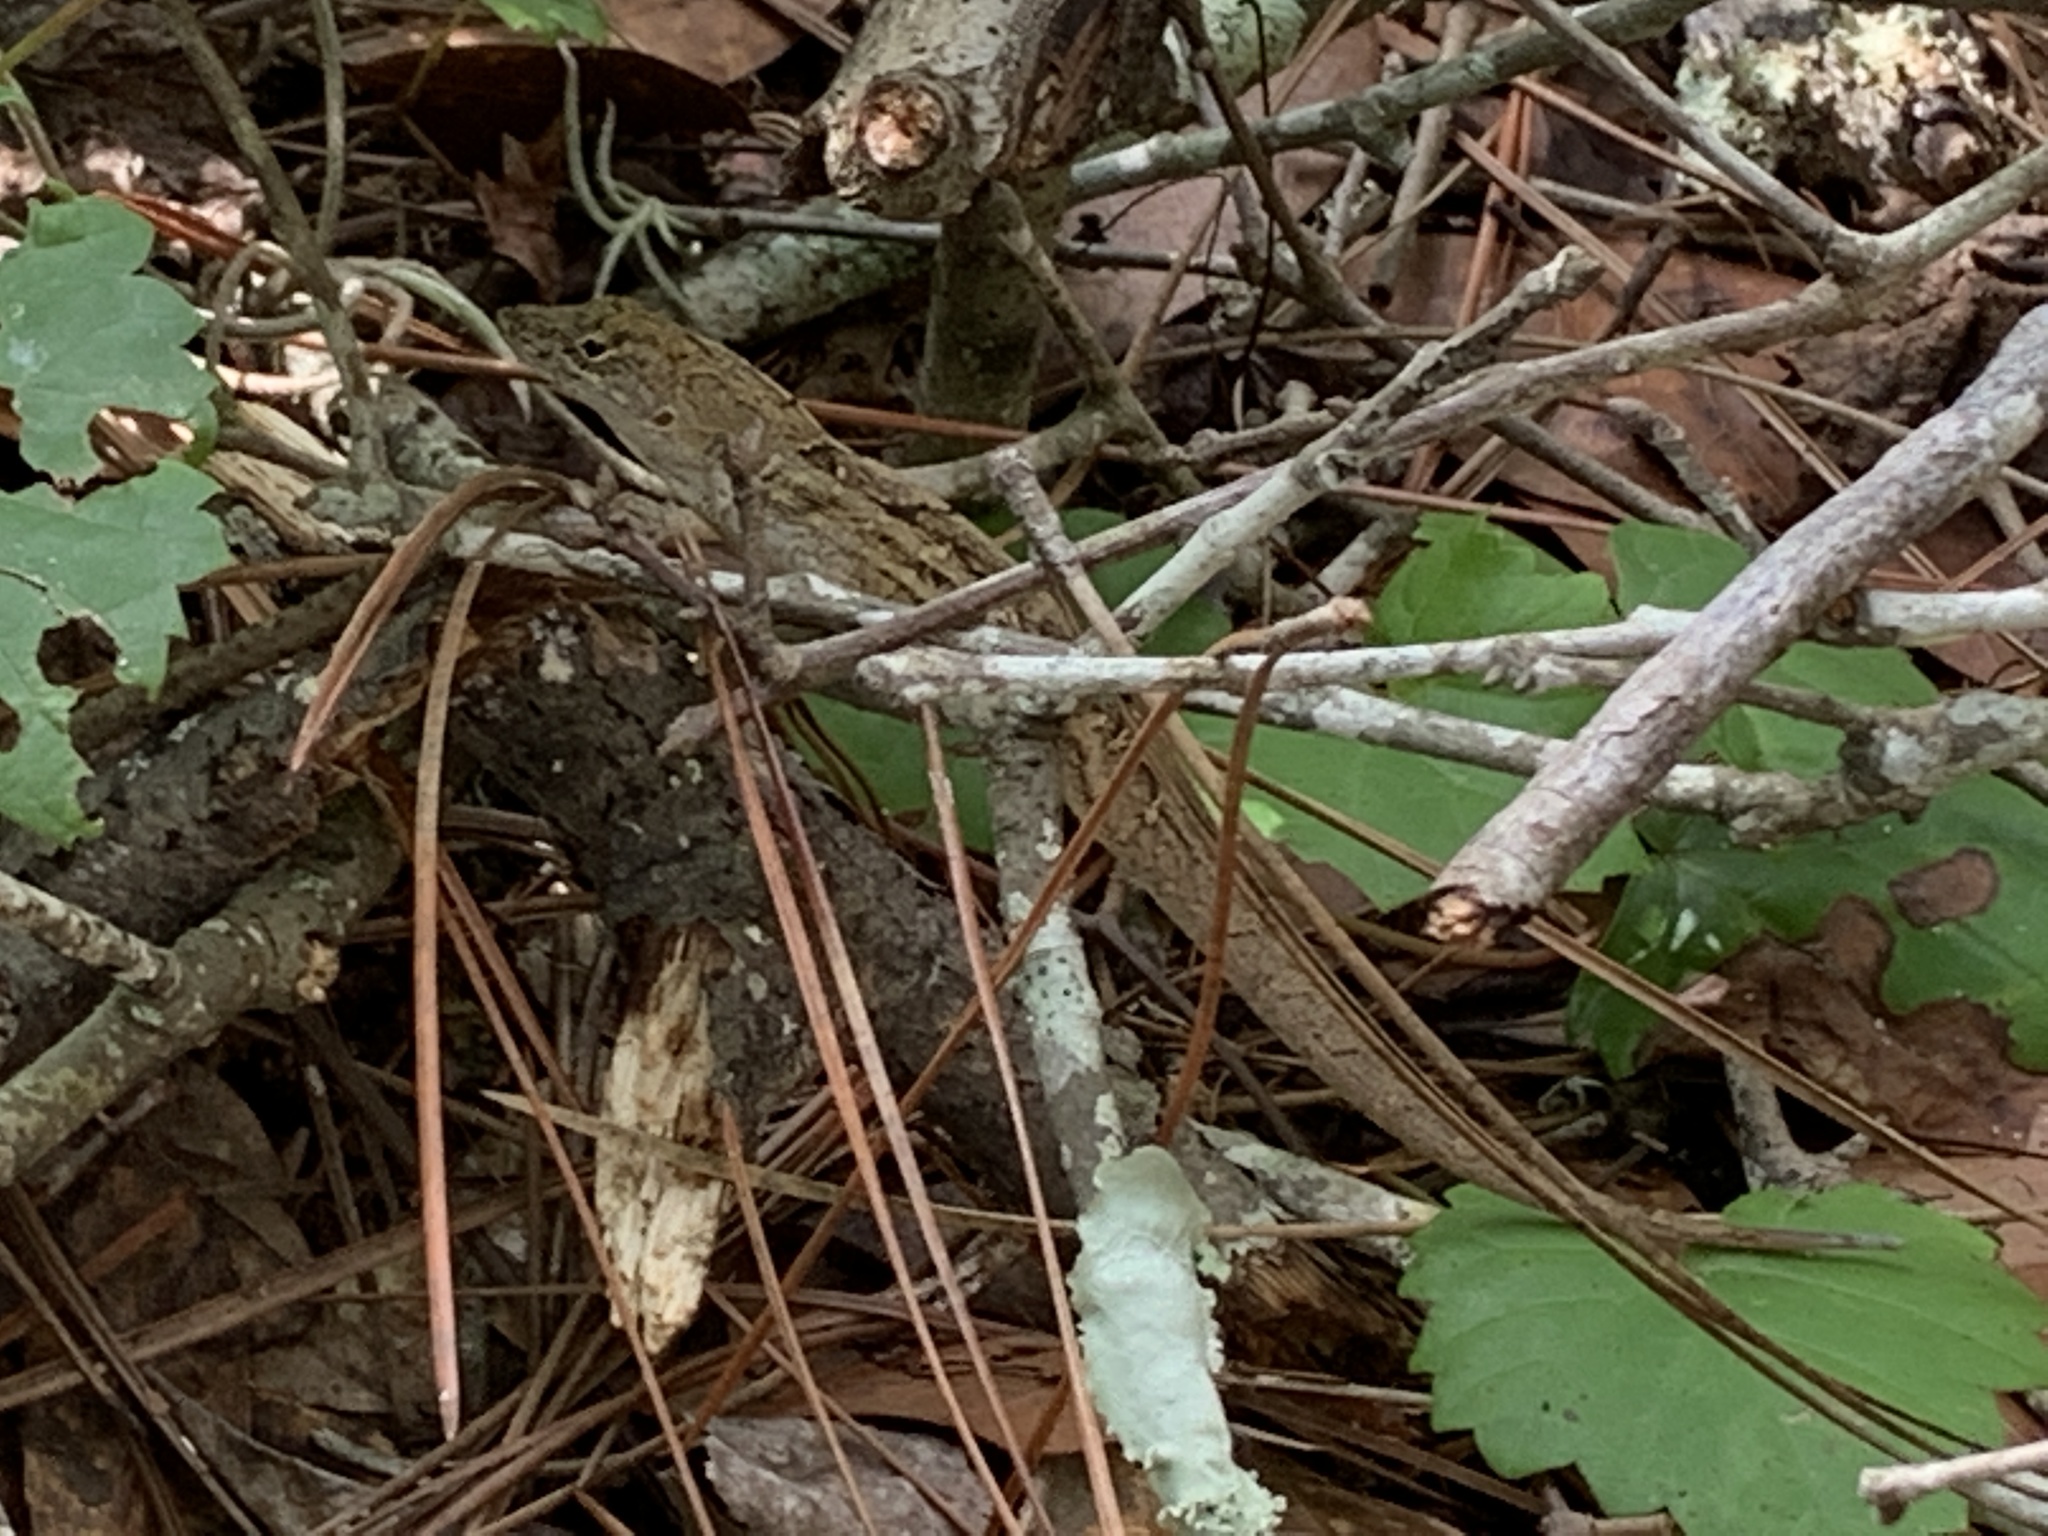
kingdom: Animalia
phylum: Chordata
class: Squamata
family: Dactyloidae
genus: Anolis
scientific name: Anolis sagrei
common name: Brown anole
